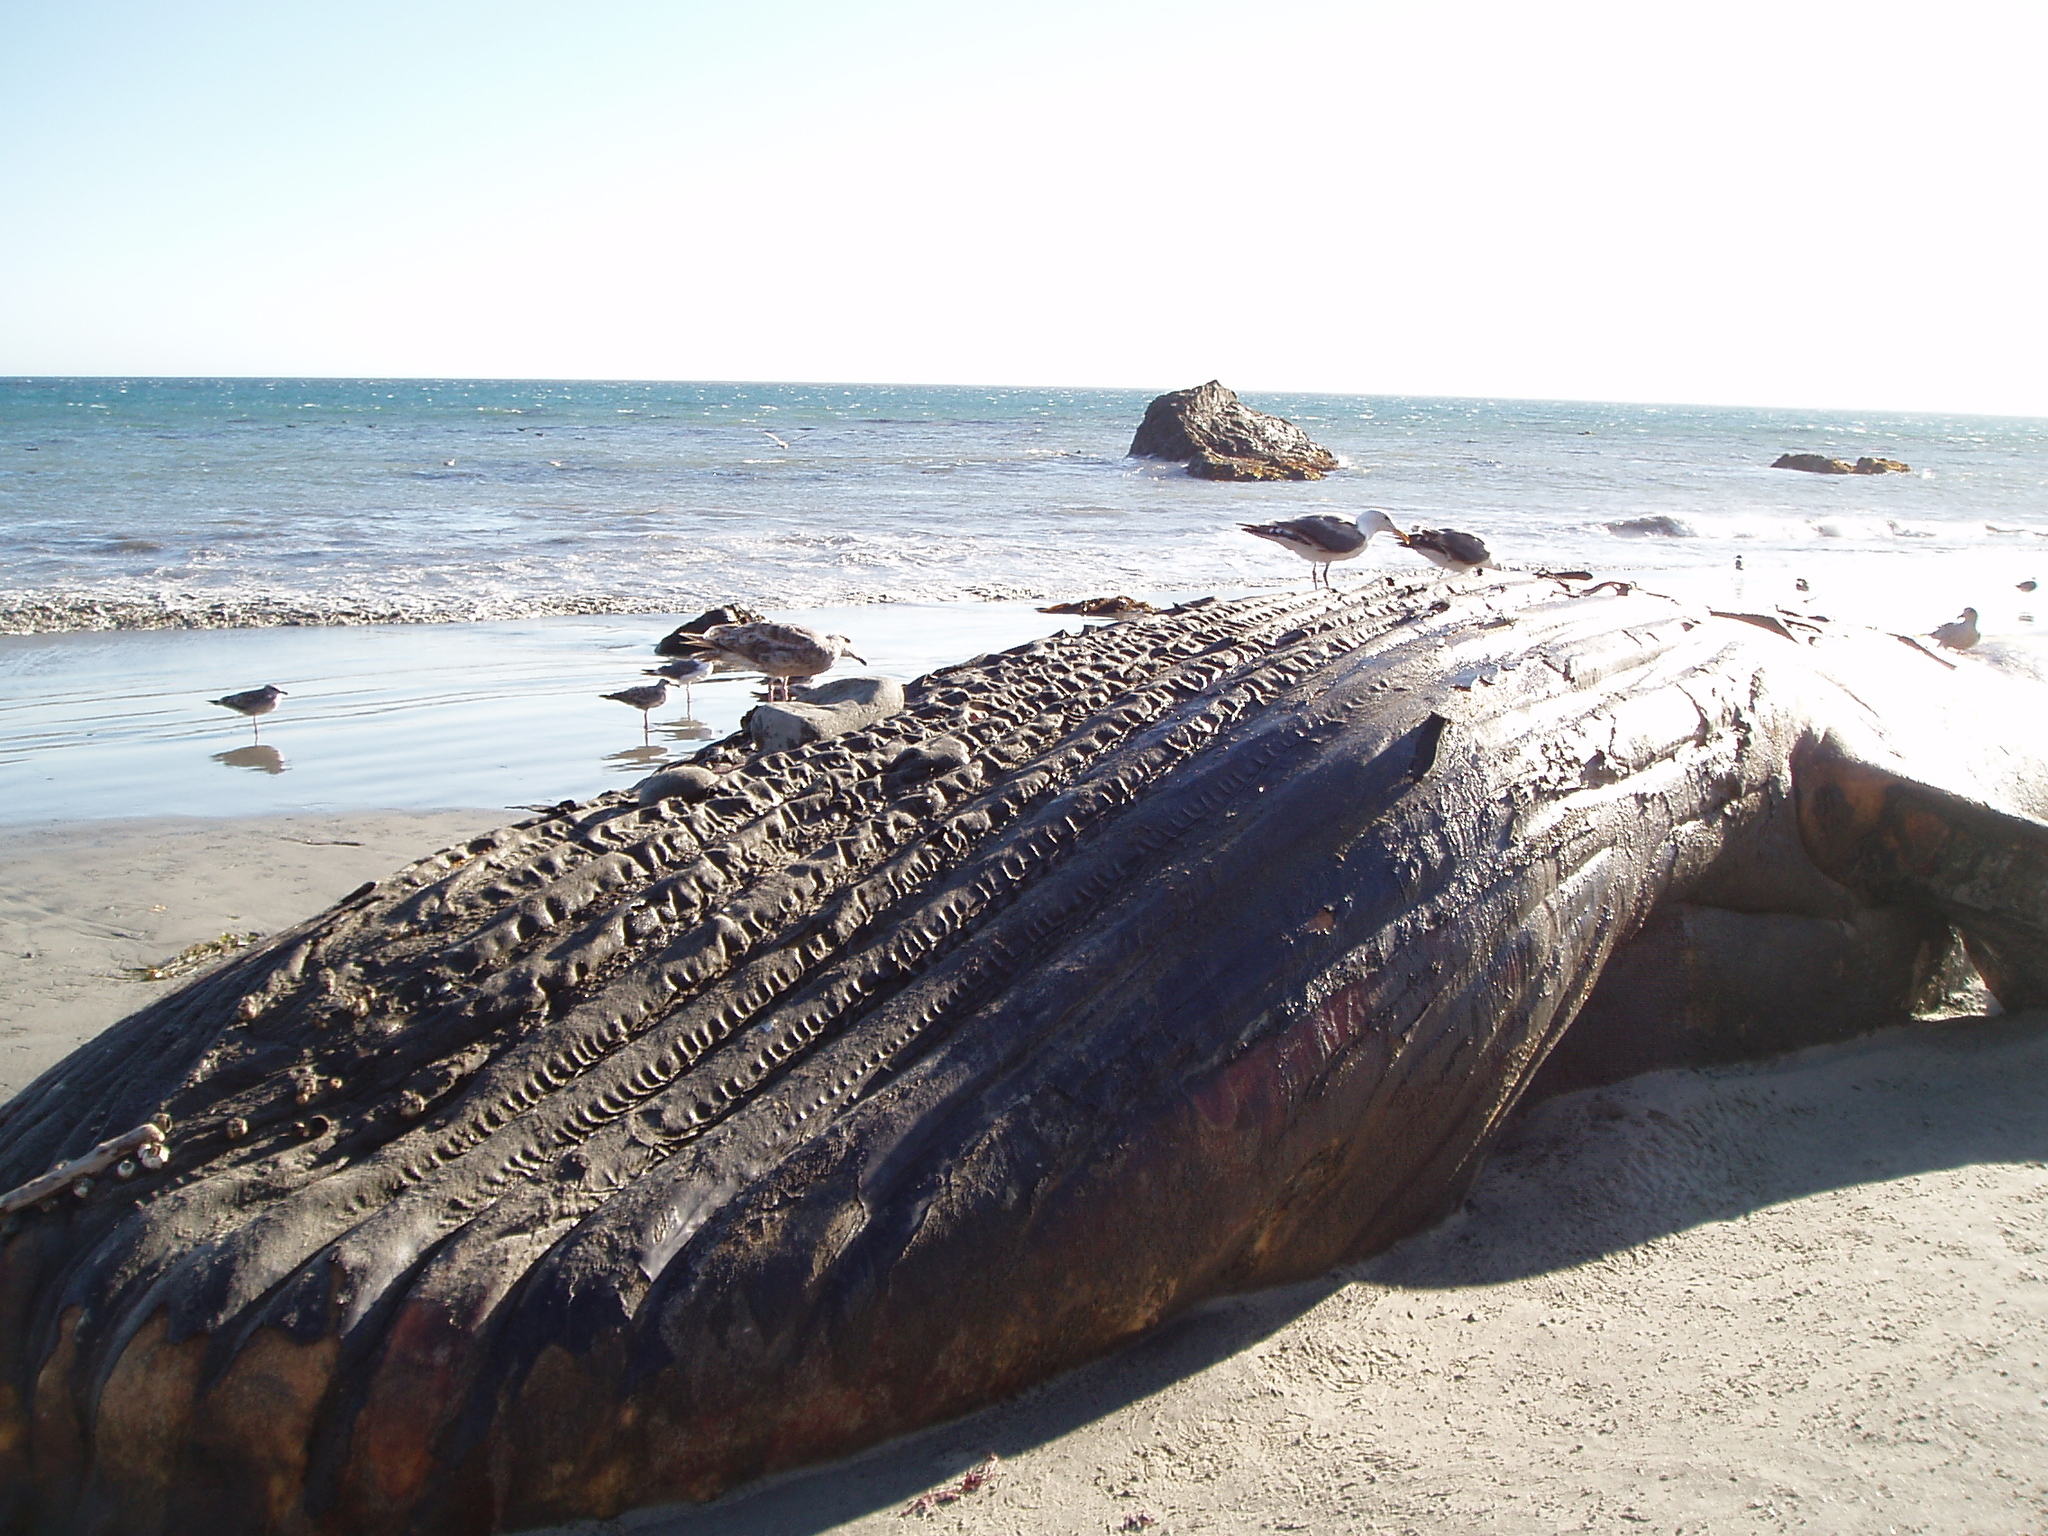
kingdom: Animalia
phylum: Chordata
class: Mammalia
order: Cetacea
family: Balaenopteridae
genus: Megaptera
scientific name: Megaptera novaeangliae
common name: Humpback whale
